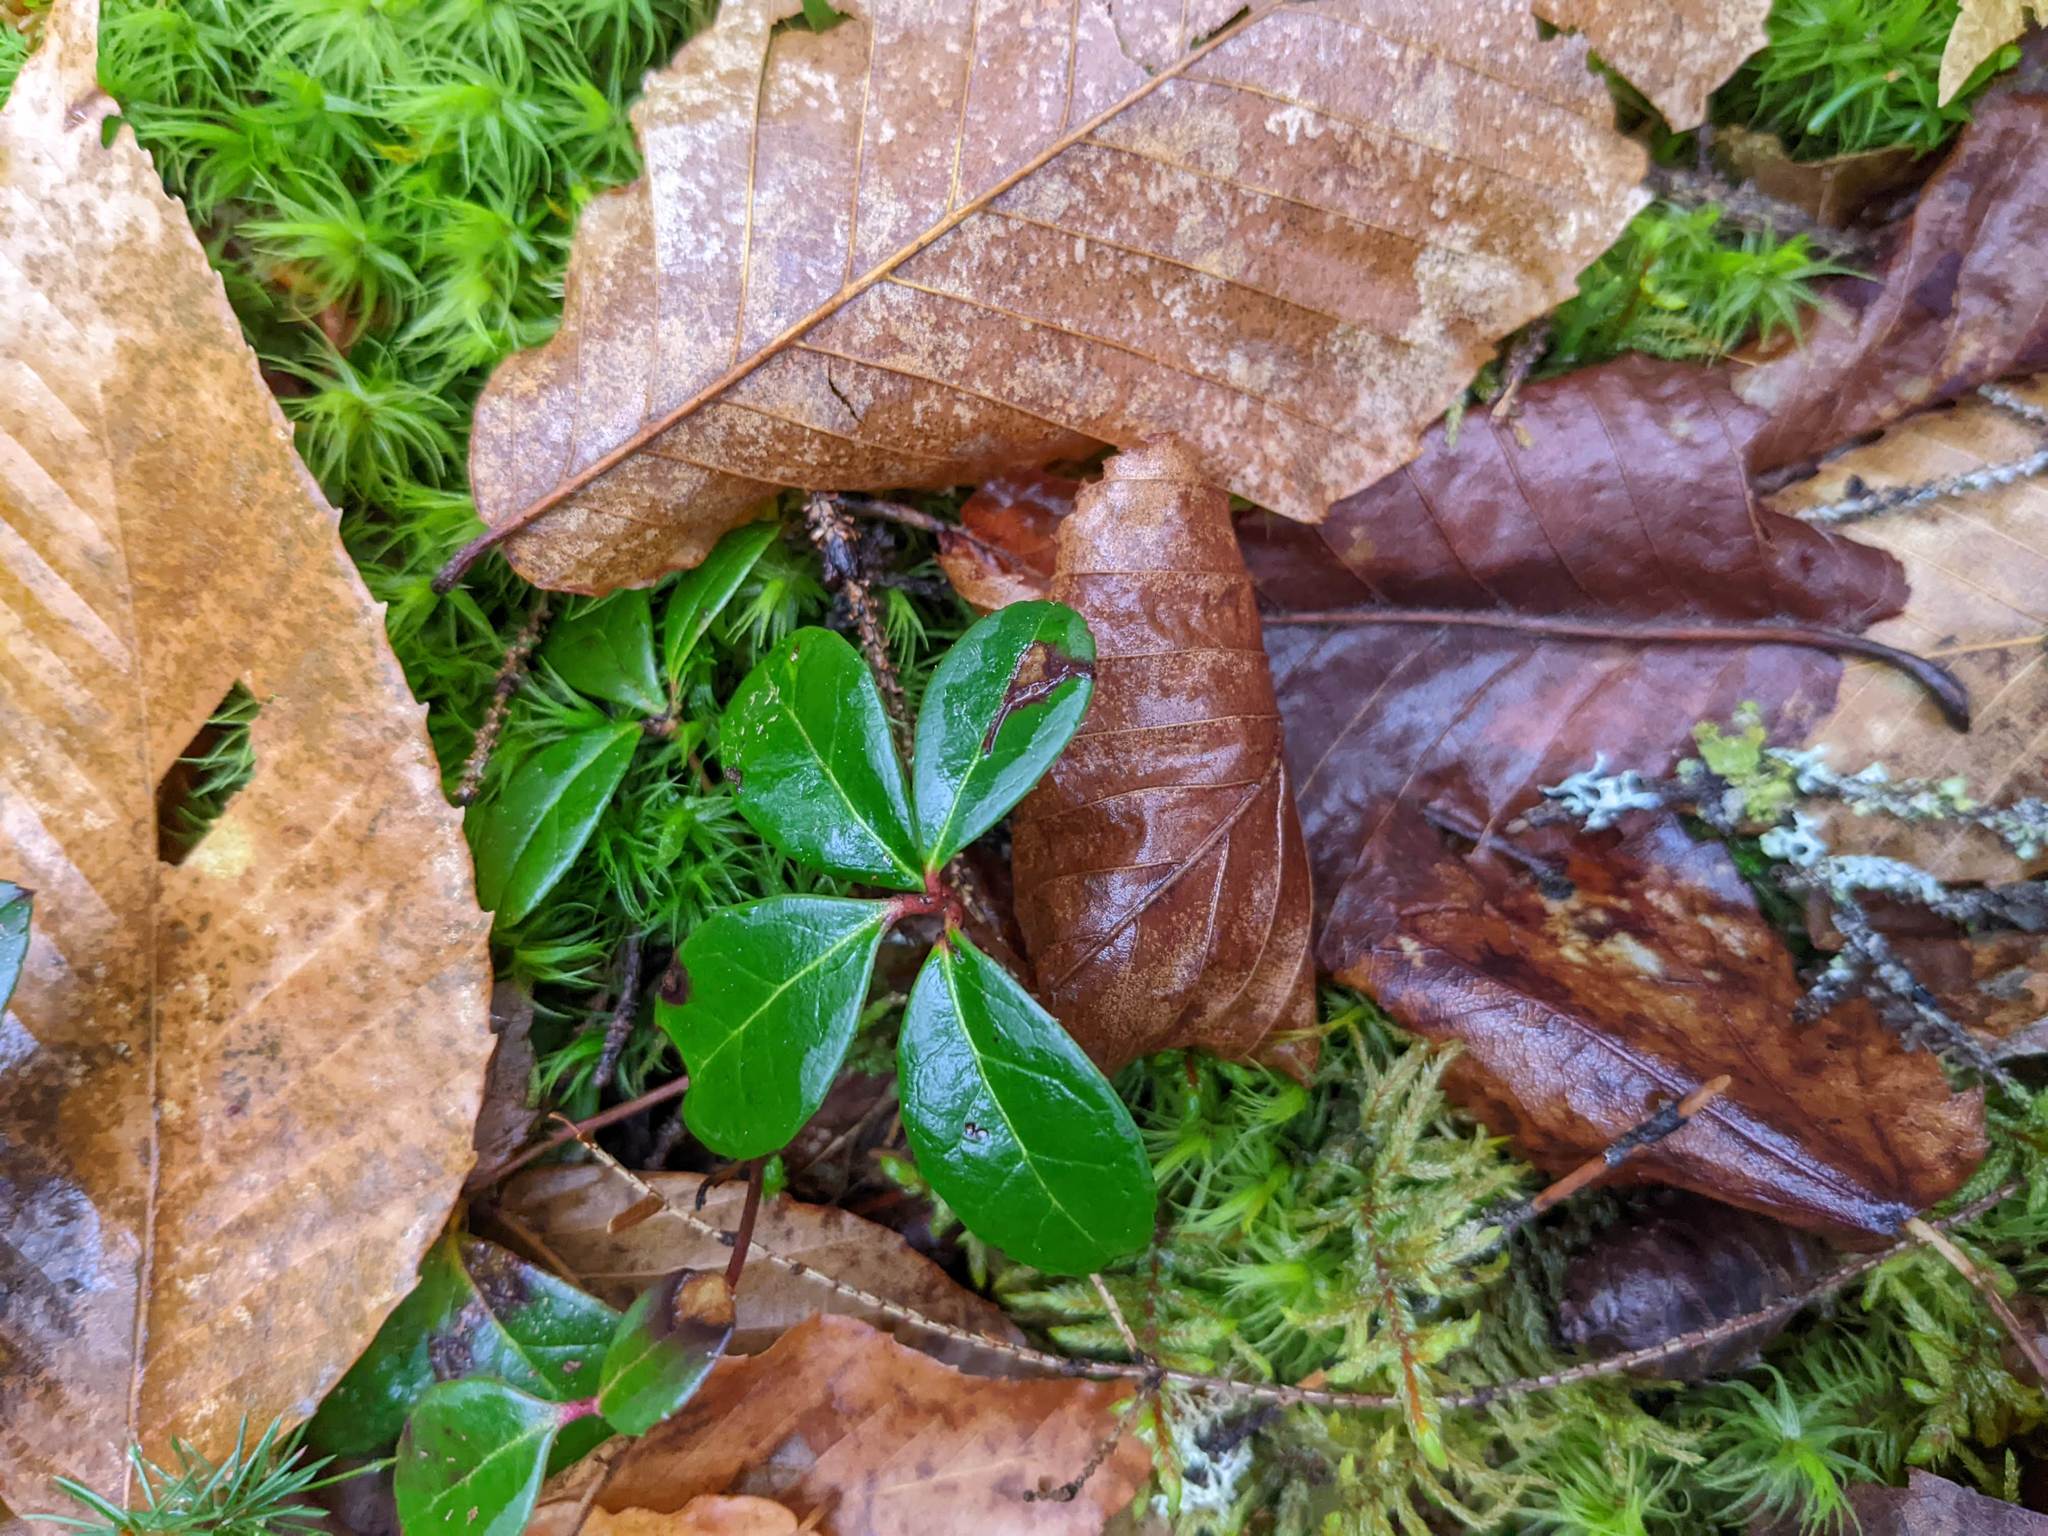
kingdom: Plantae
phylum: Tracheophyta
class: Magnoliopsida
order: Ericales
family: Ericaceae
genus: Gaultheria
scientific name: Gaultheria procumbens
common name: Checkerberry
